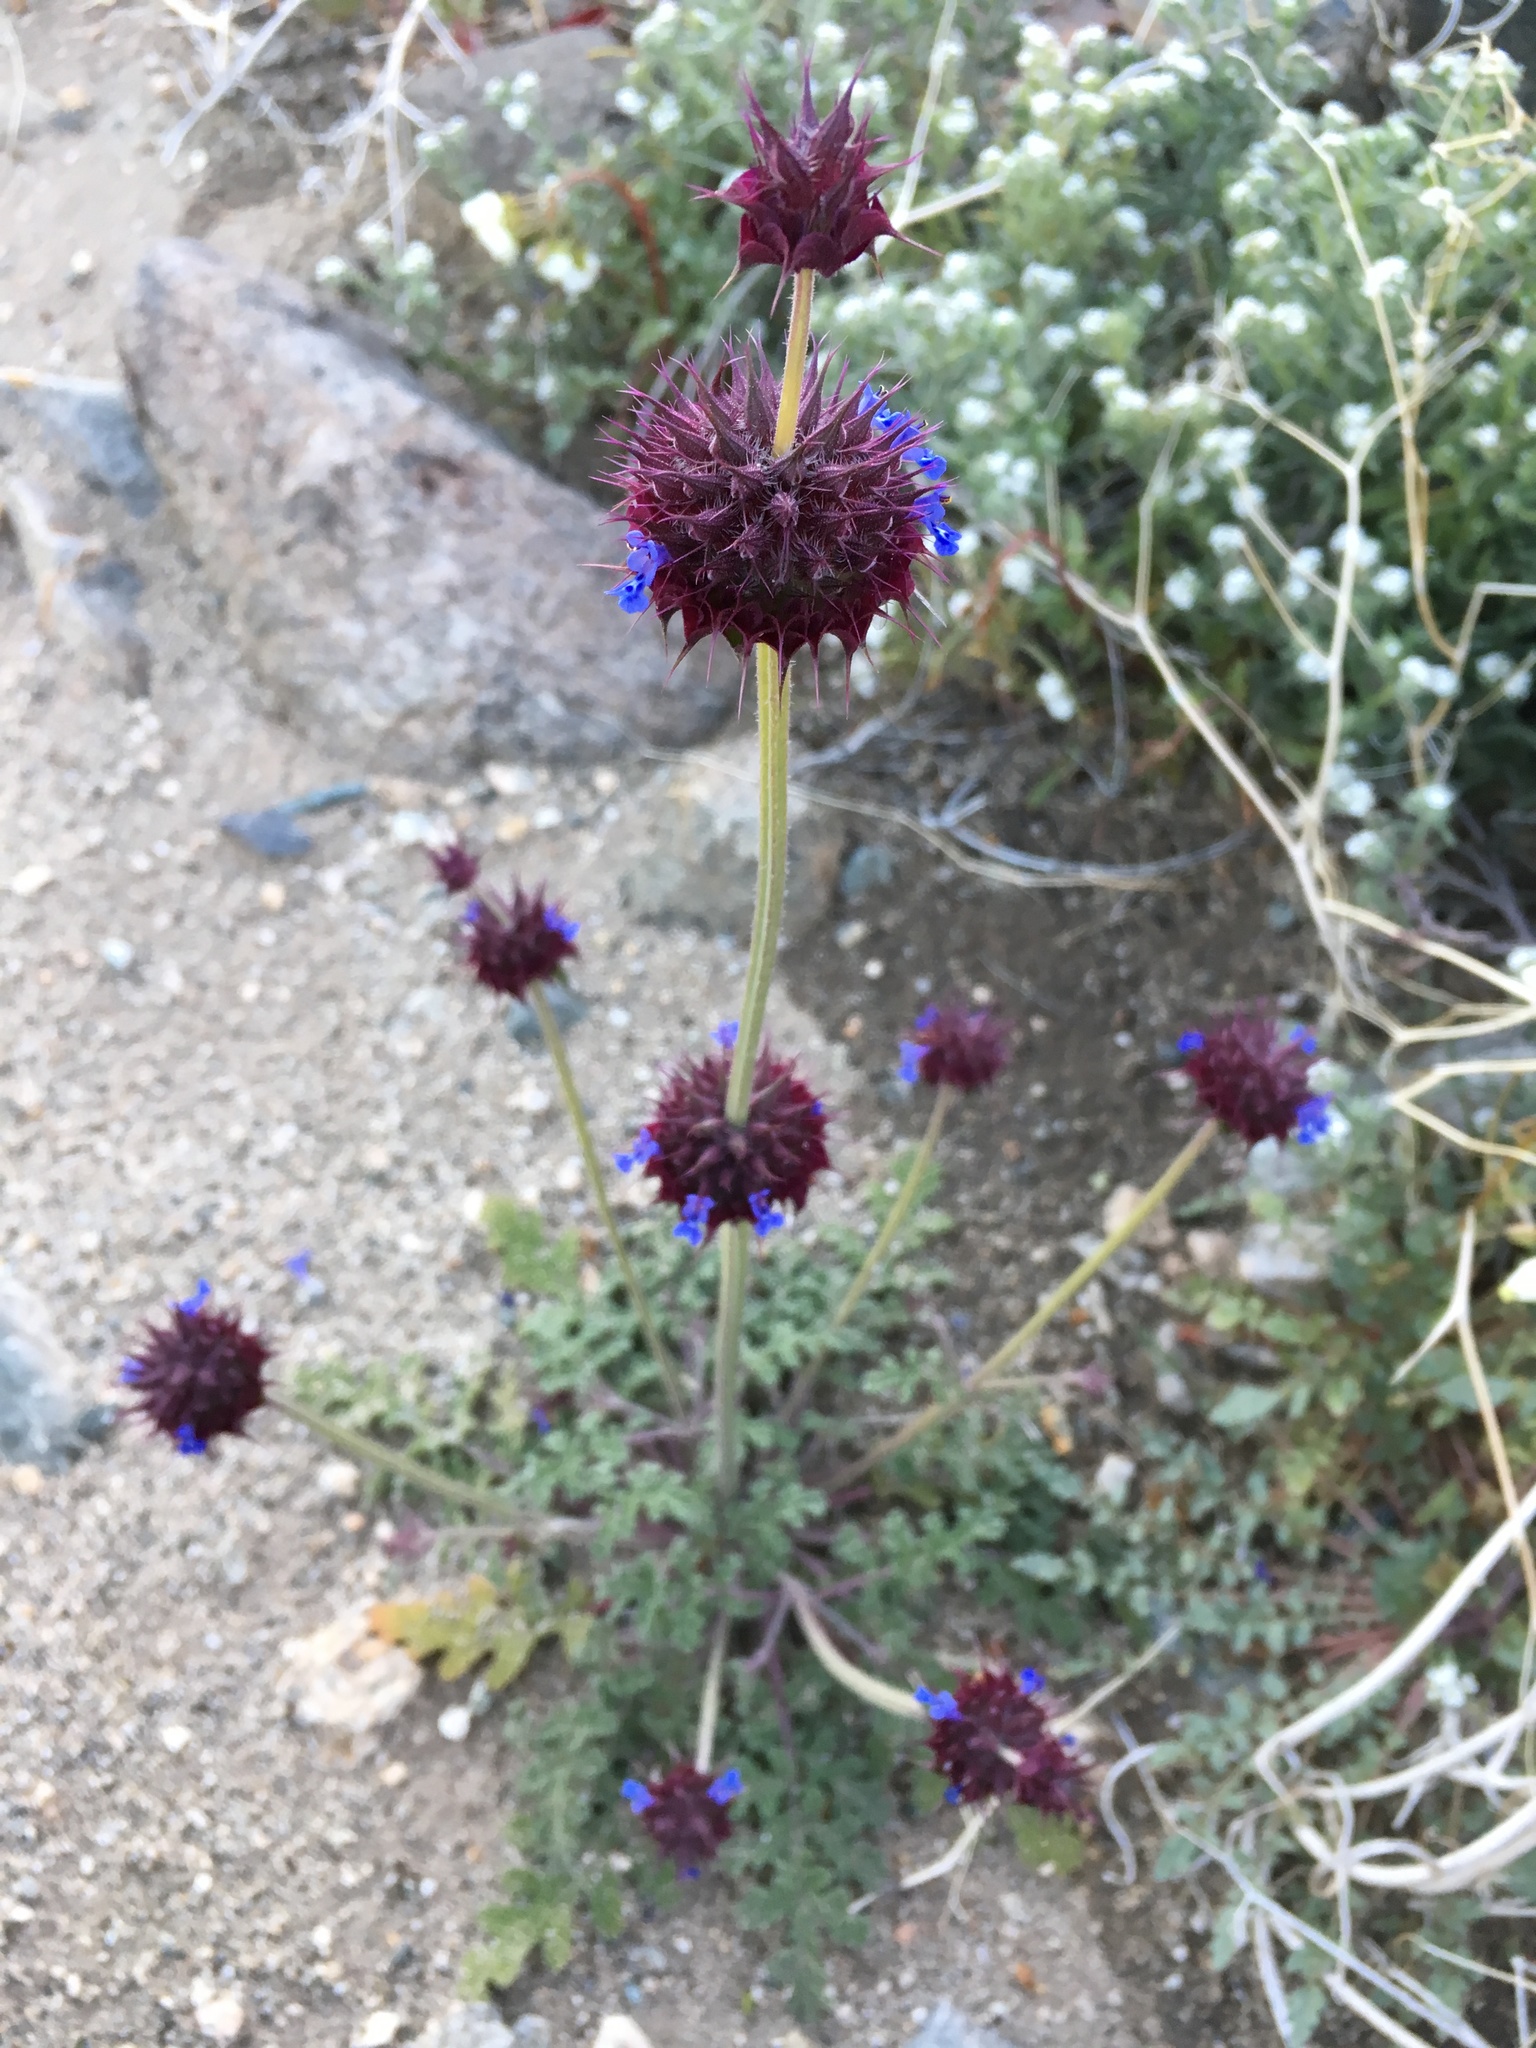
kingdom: Plantae
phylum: Tracheophyta
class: Magnoliopsida
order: Lamiales
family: Lamiaceae
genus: Salvia
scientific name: Salvia columbariae
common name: Chia
